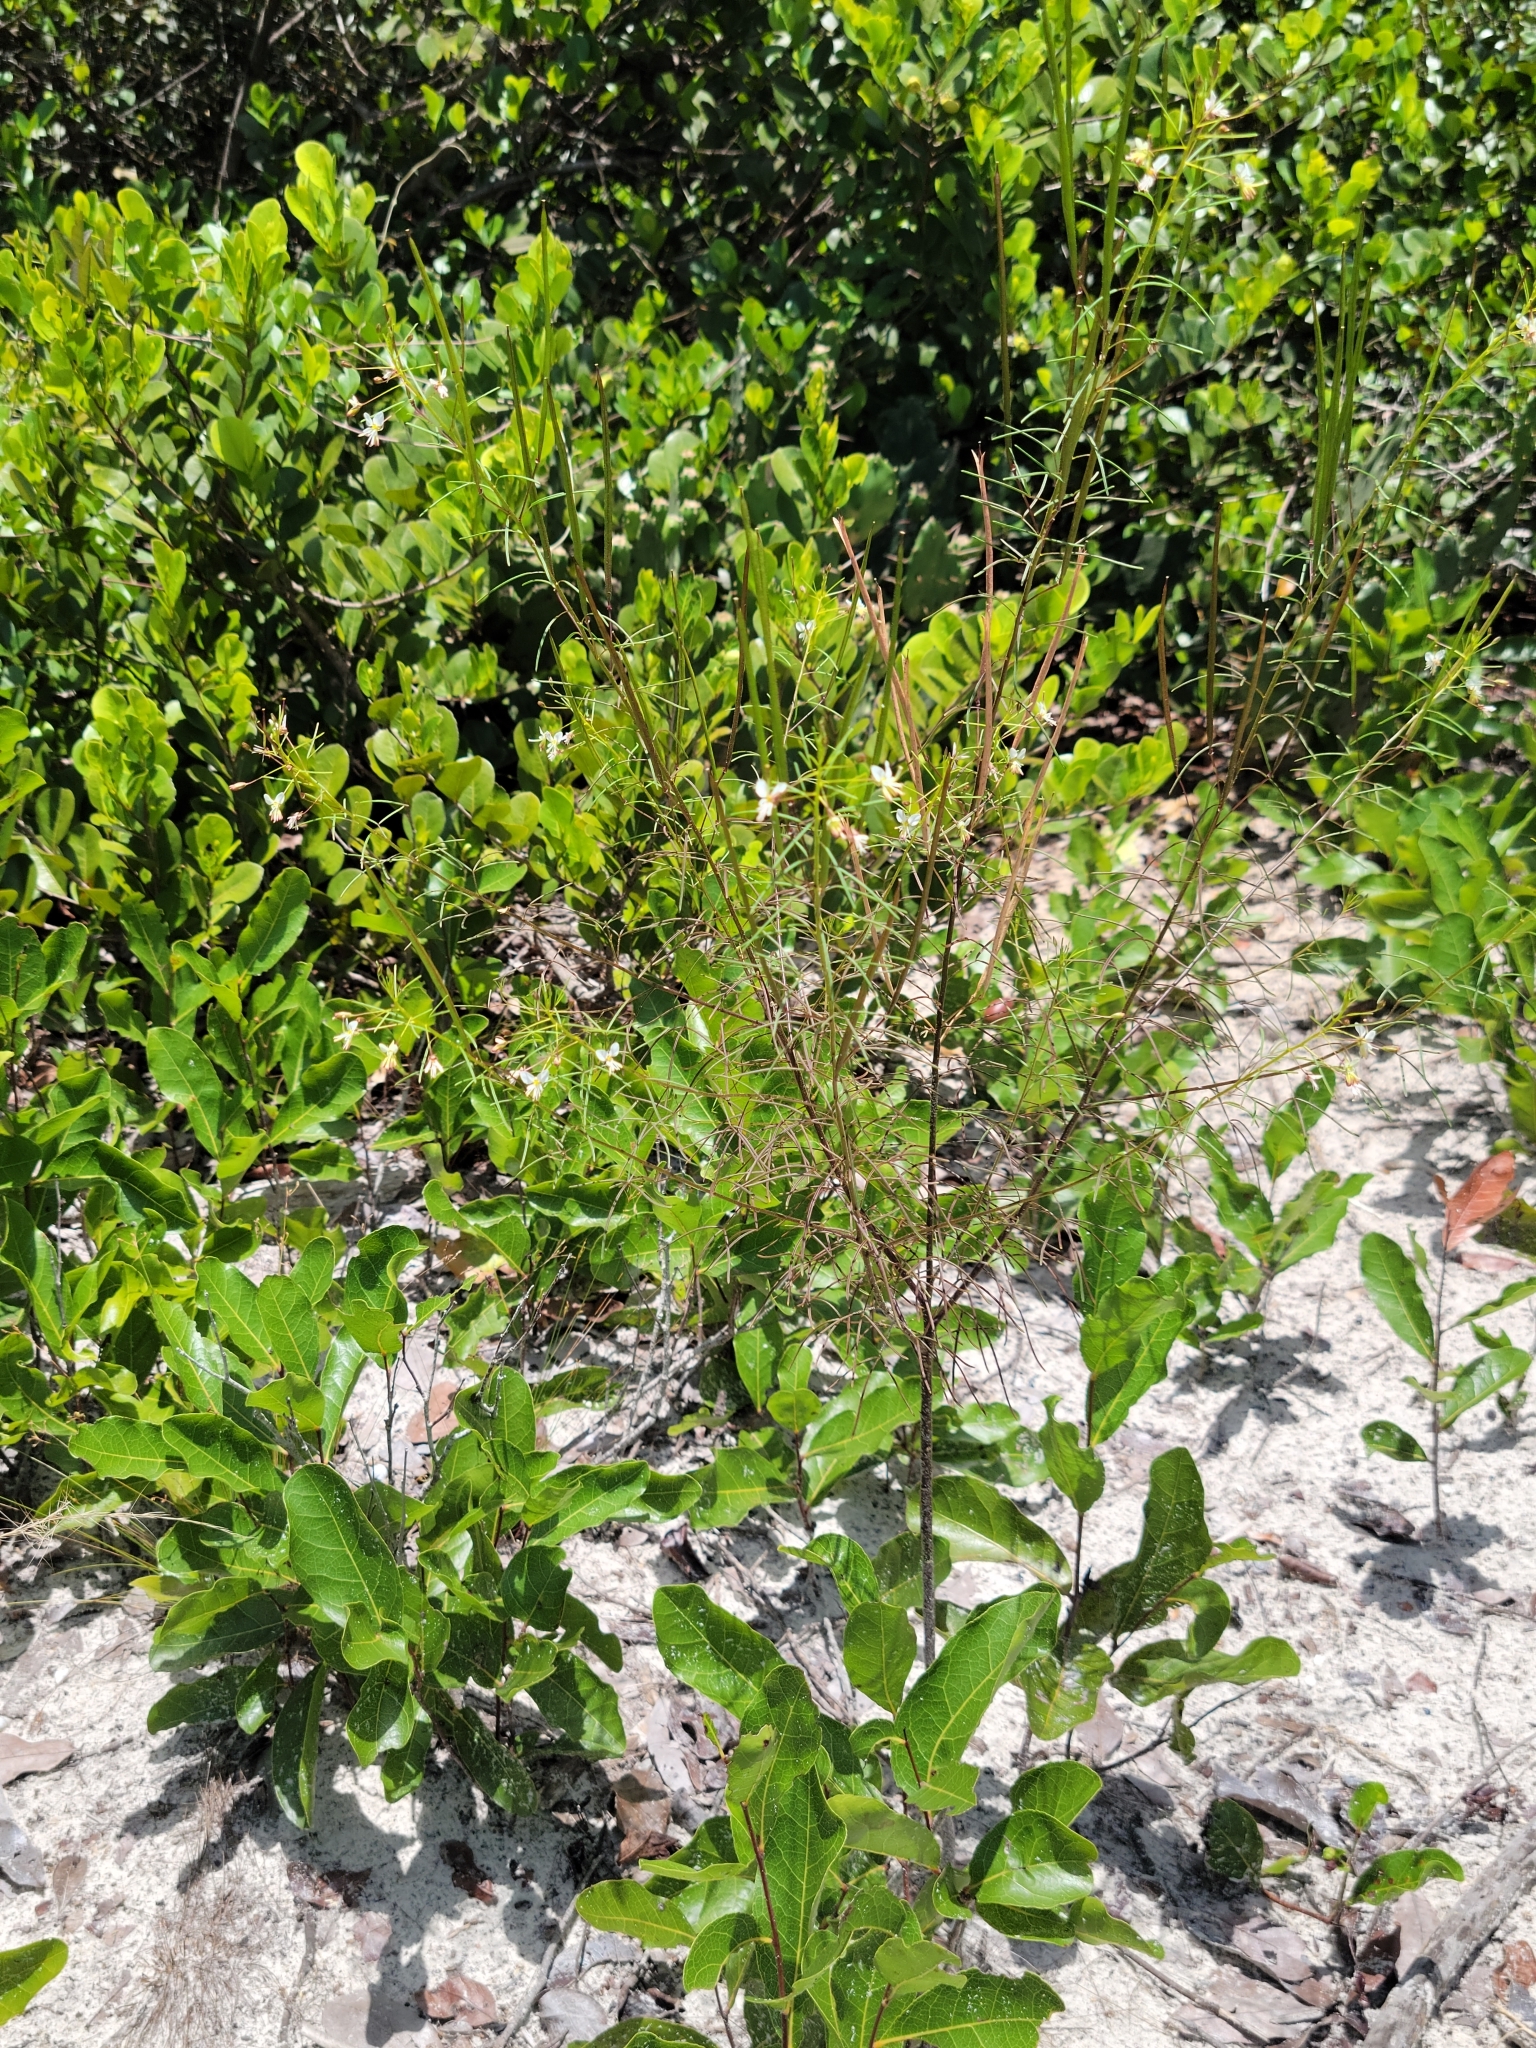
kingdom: Plantae
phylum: Tracheophyta
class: Magnoliopsida
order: Brassicales
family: Cleomaceae
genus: Polanisia
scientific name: Polanisia tenuifolia
